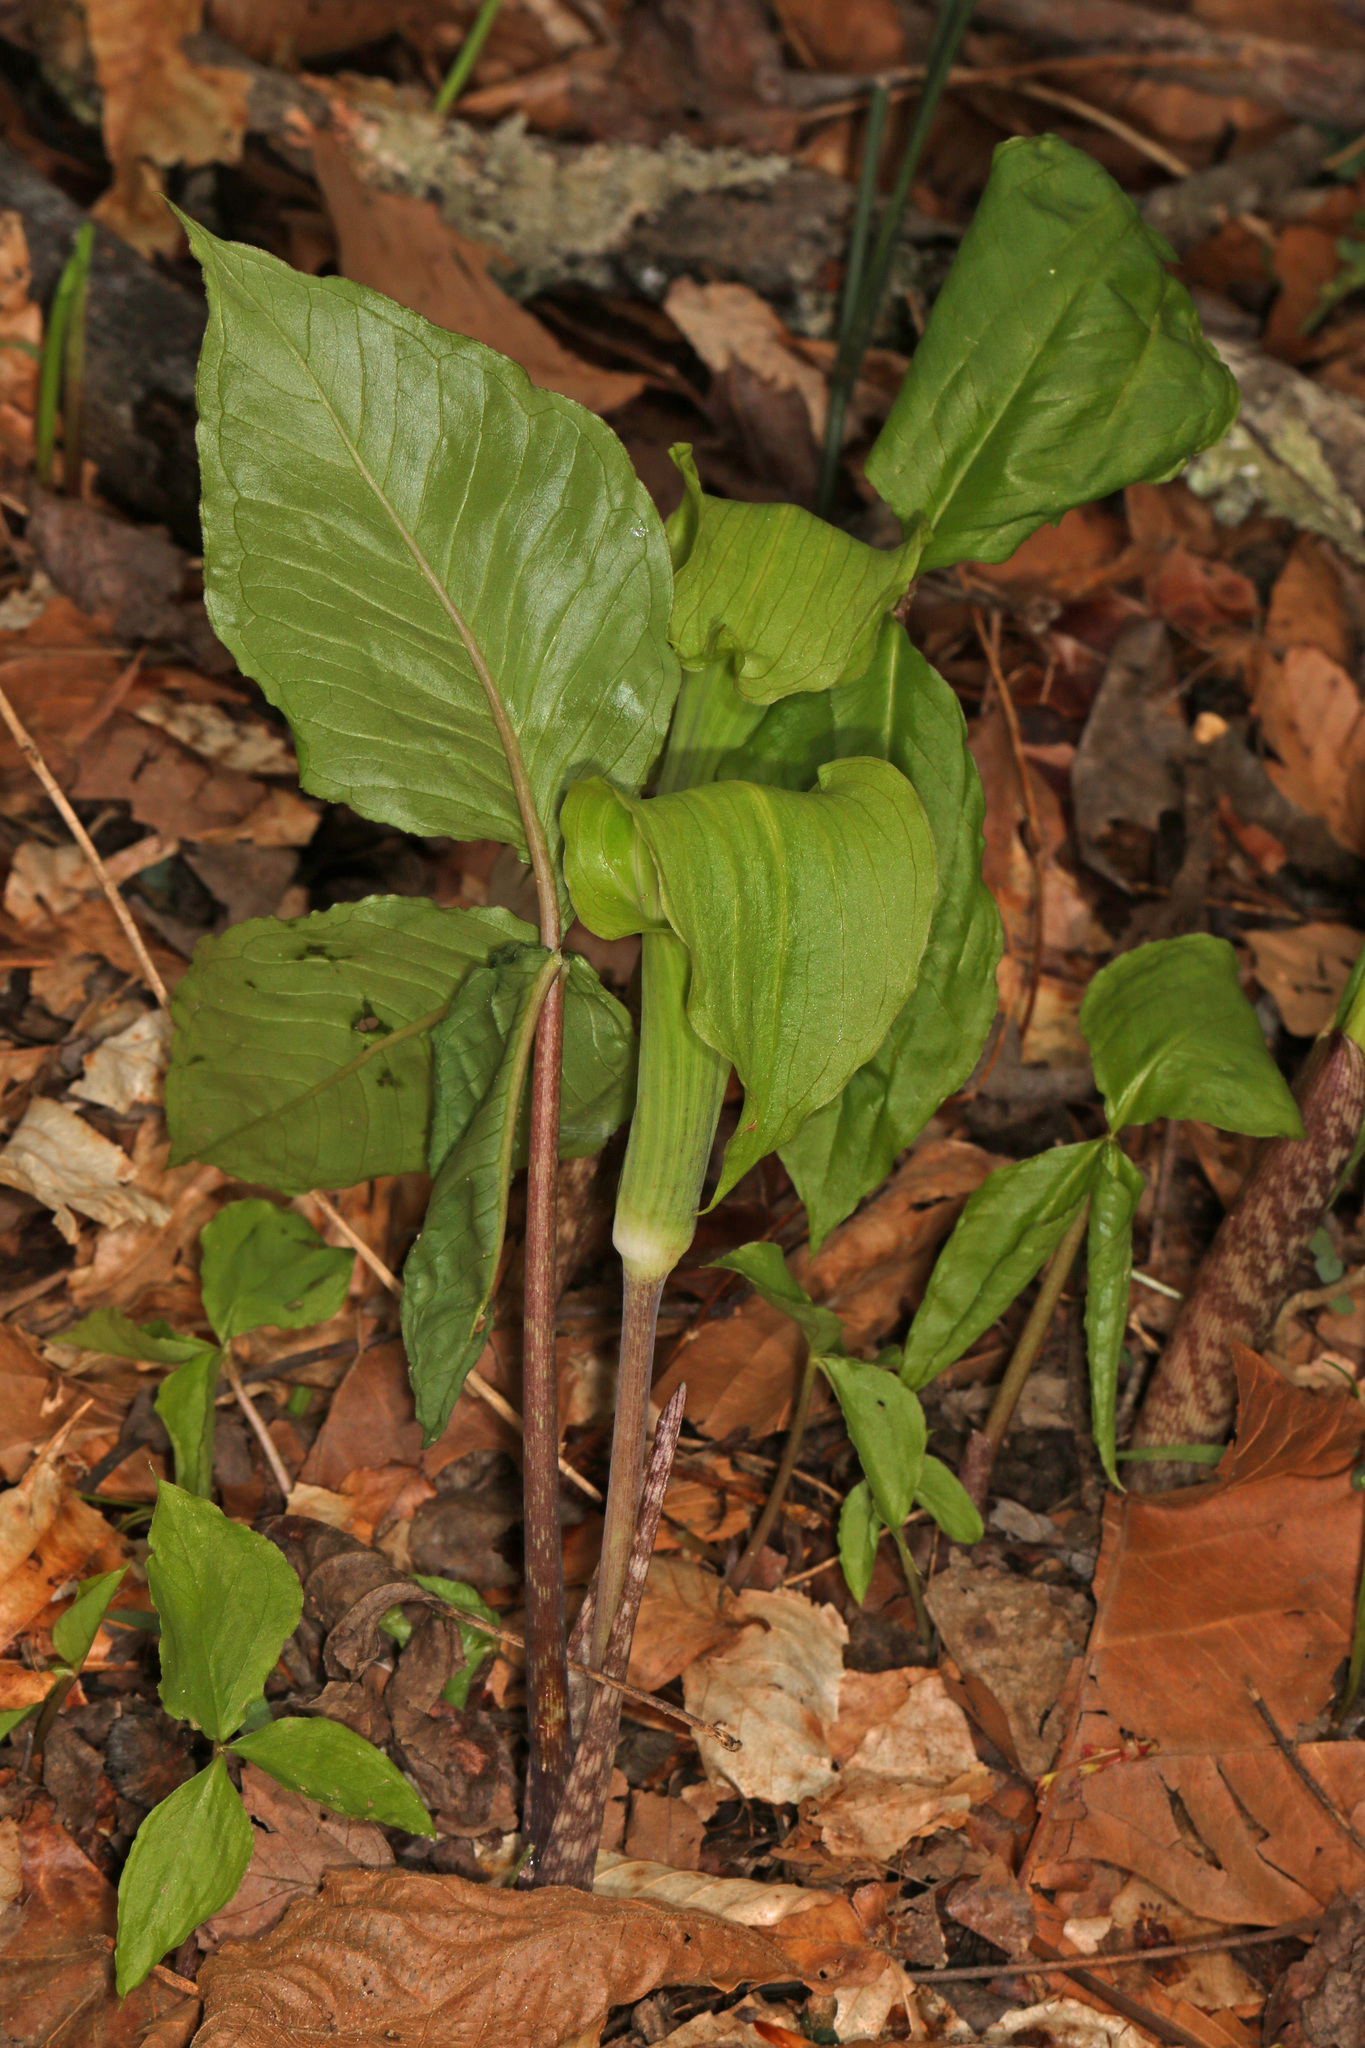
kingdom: Plantae
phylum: Tracheophyta
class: Liliopsida
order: Alismatales
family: Araceae
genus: Arisaema
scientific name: Arisaema triphyllum
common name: Jack-in-the-pulpit
